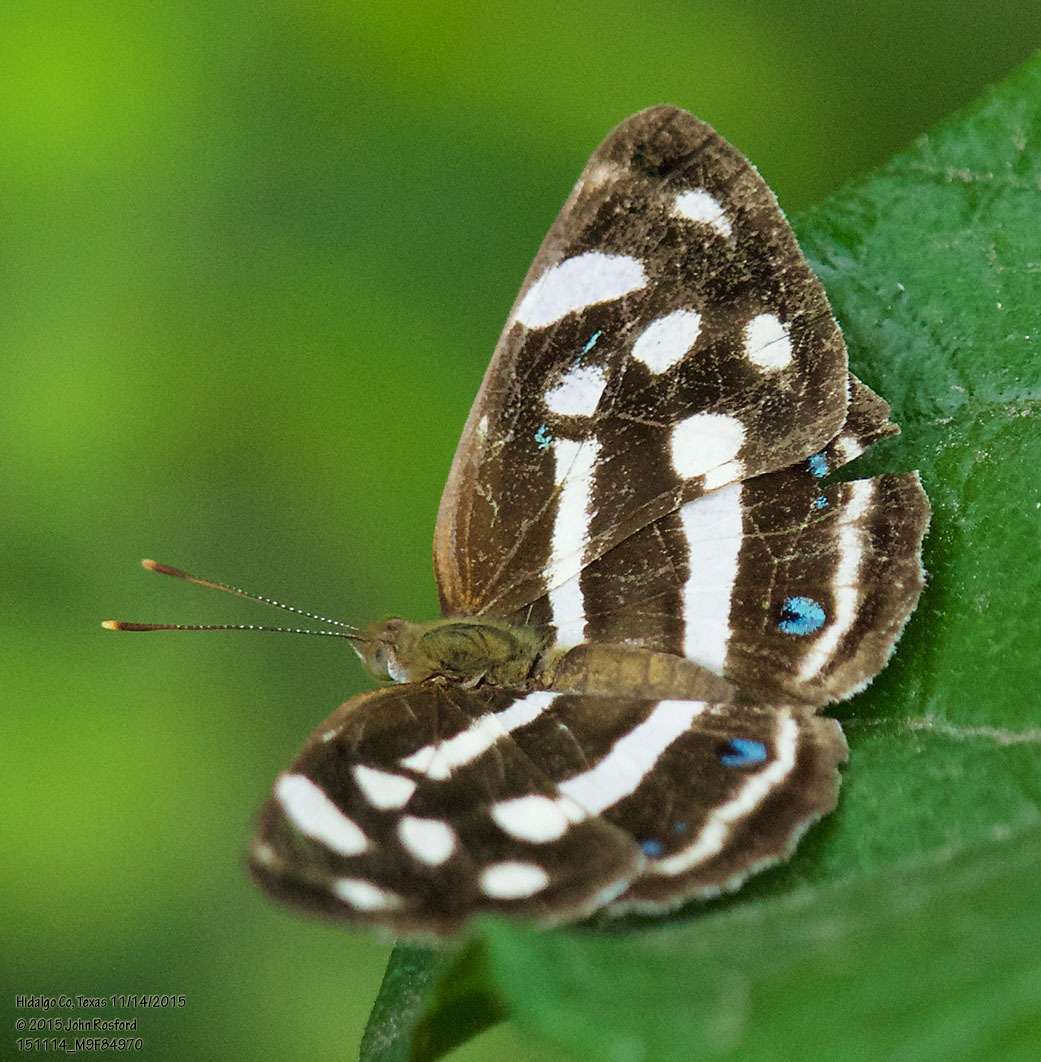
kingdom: Animalia
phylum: Arthropoda
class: Insecta
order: Lepidoptera
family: Nymphalidae
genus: Dynamine
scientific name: Dynamine mylitta
